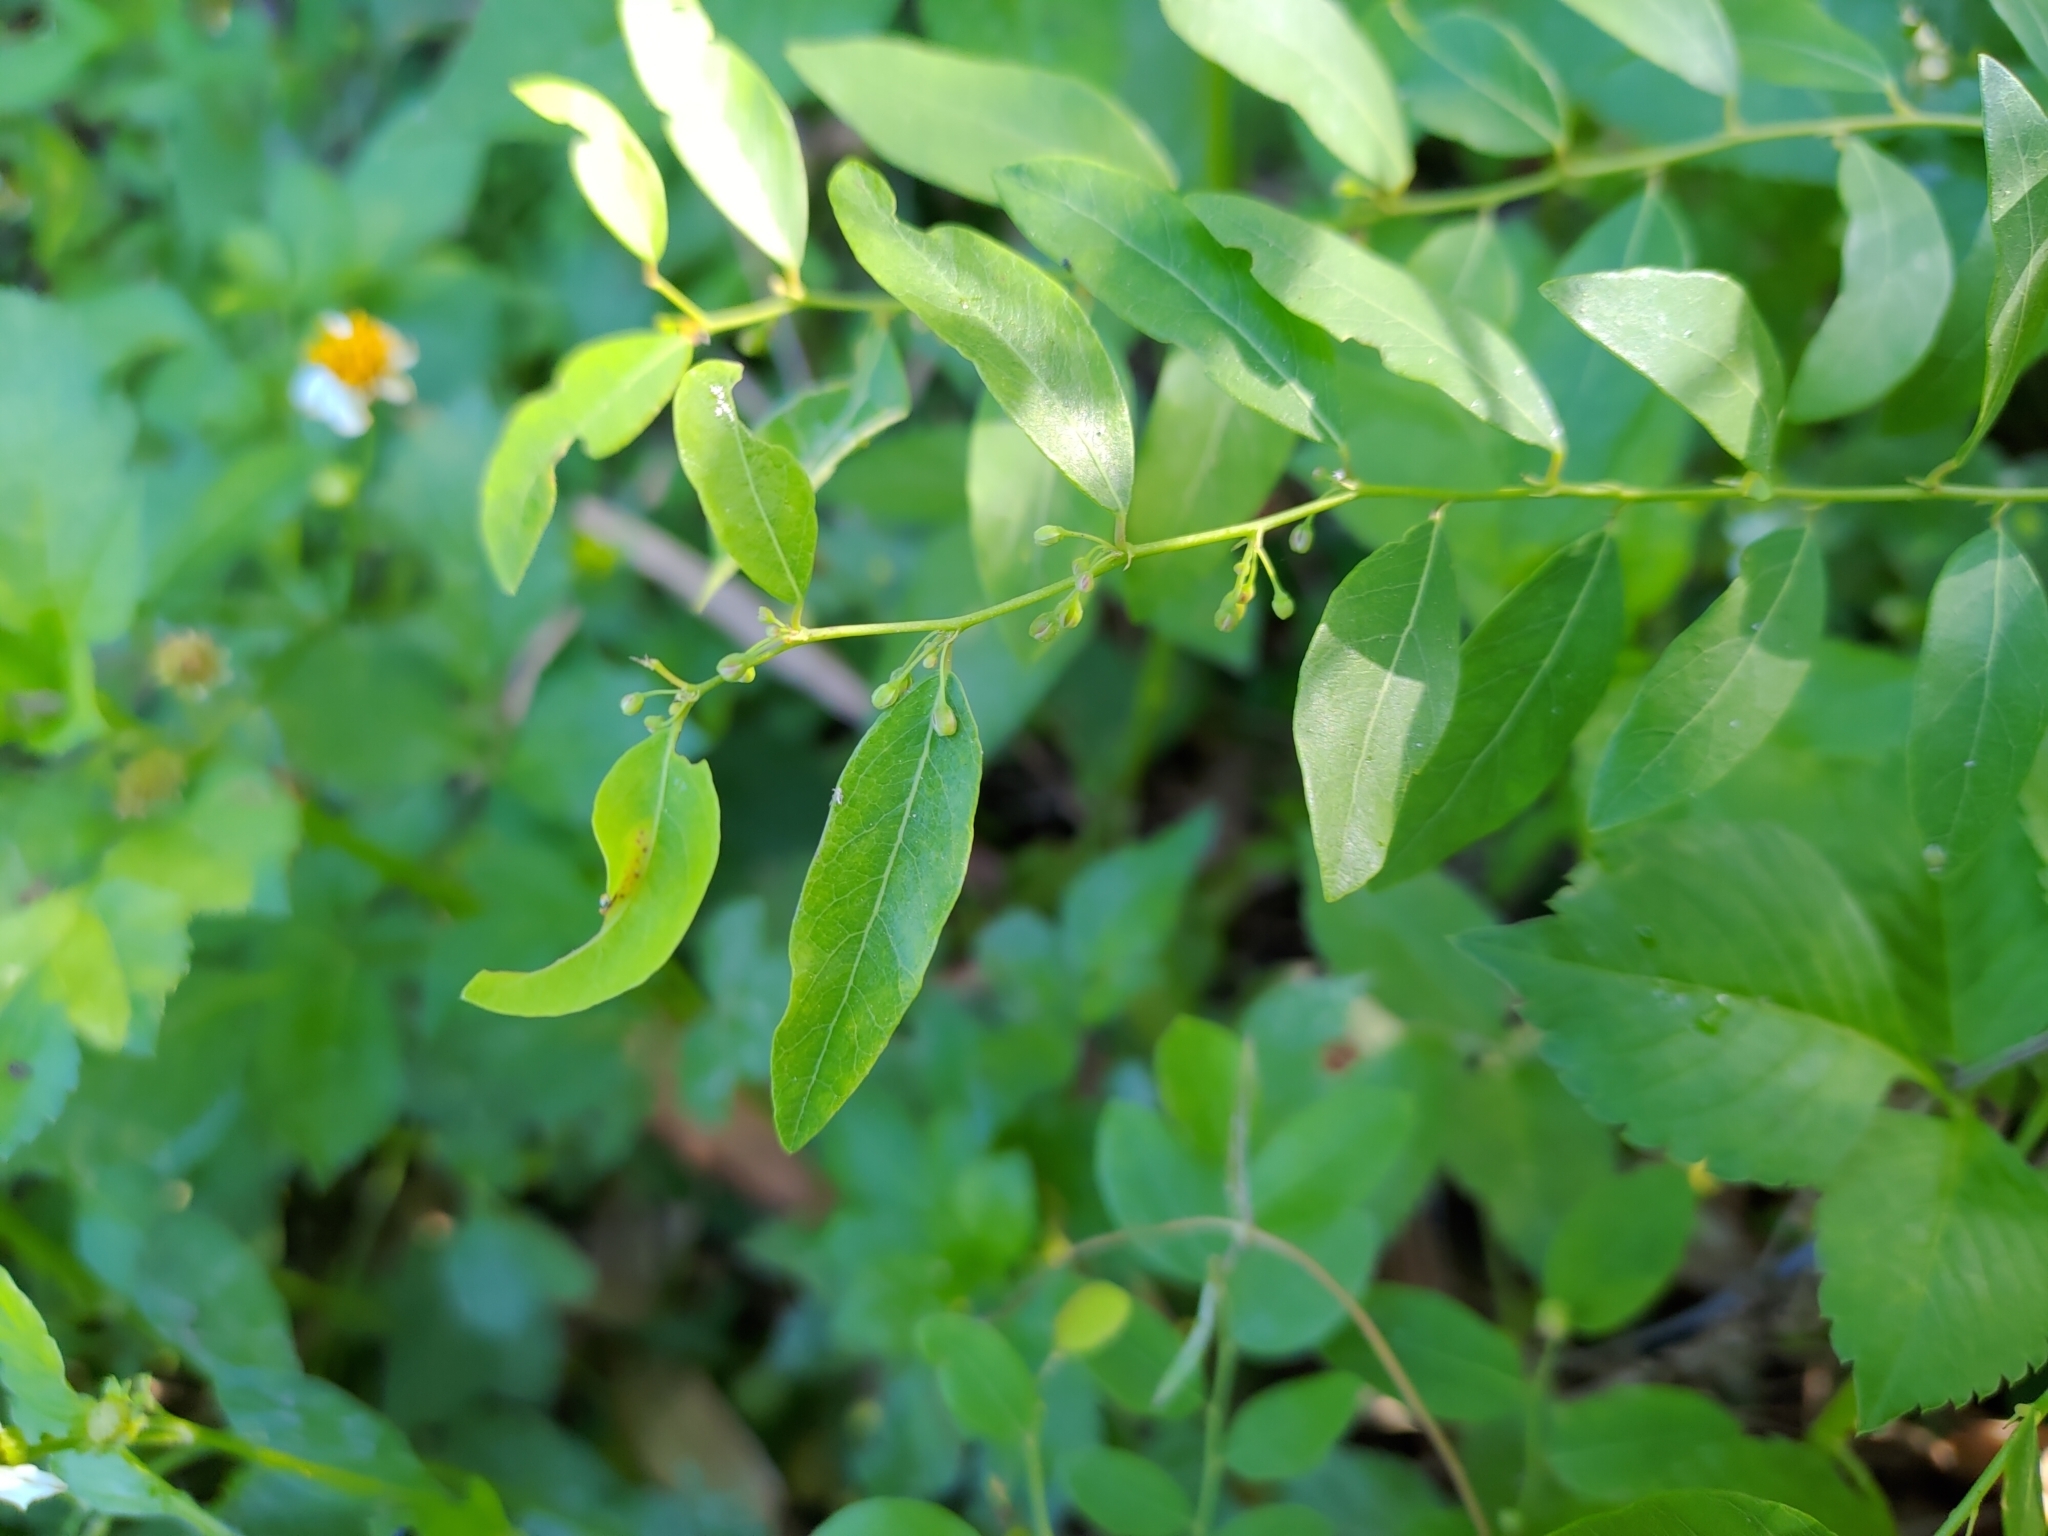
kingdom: Plantae
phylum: Tracheophyta
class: Magnoliopsida
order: Malpighiales
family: Phyllanthaceae
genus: Phyllanthus
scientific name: Phyllanthus reticulatus
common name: Potato bush
